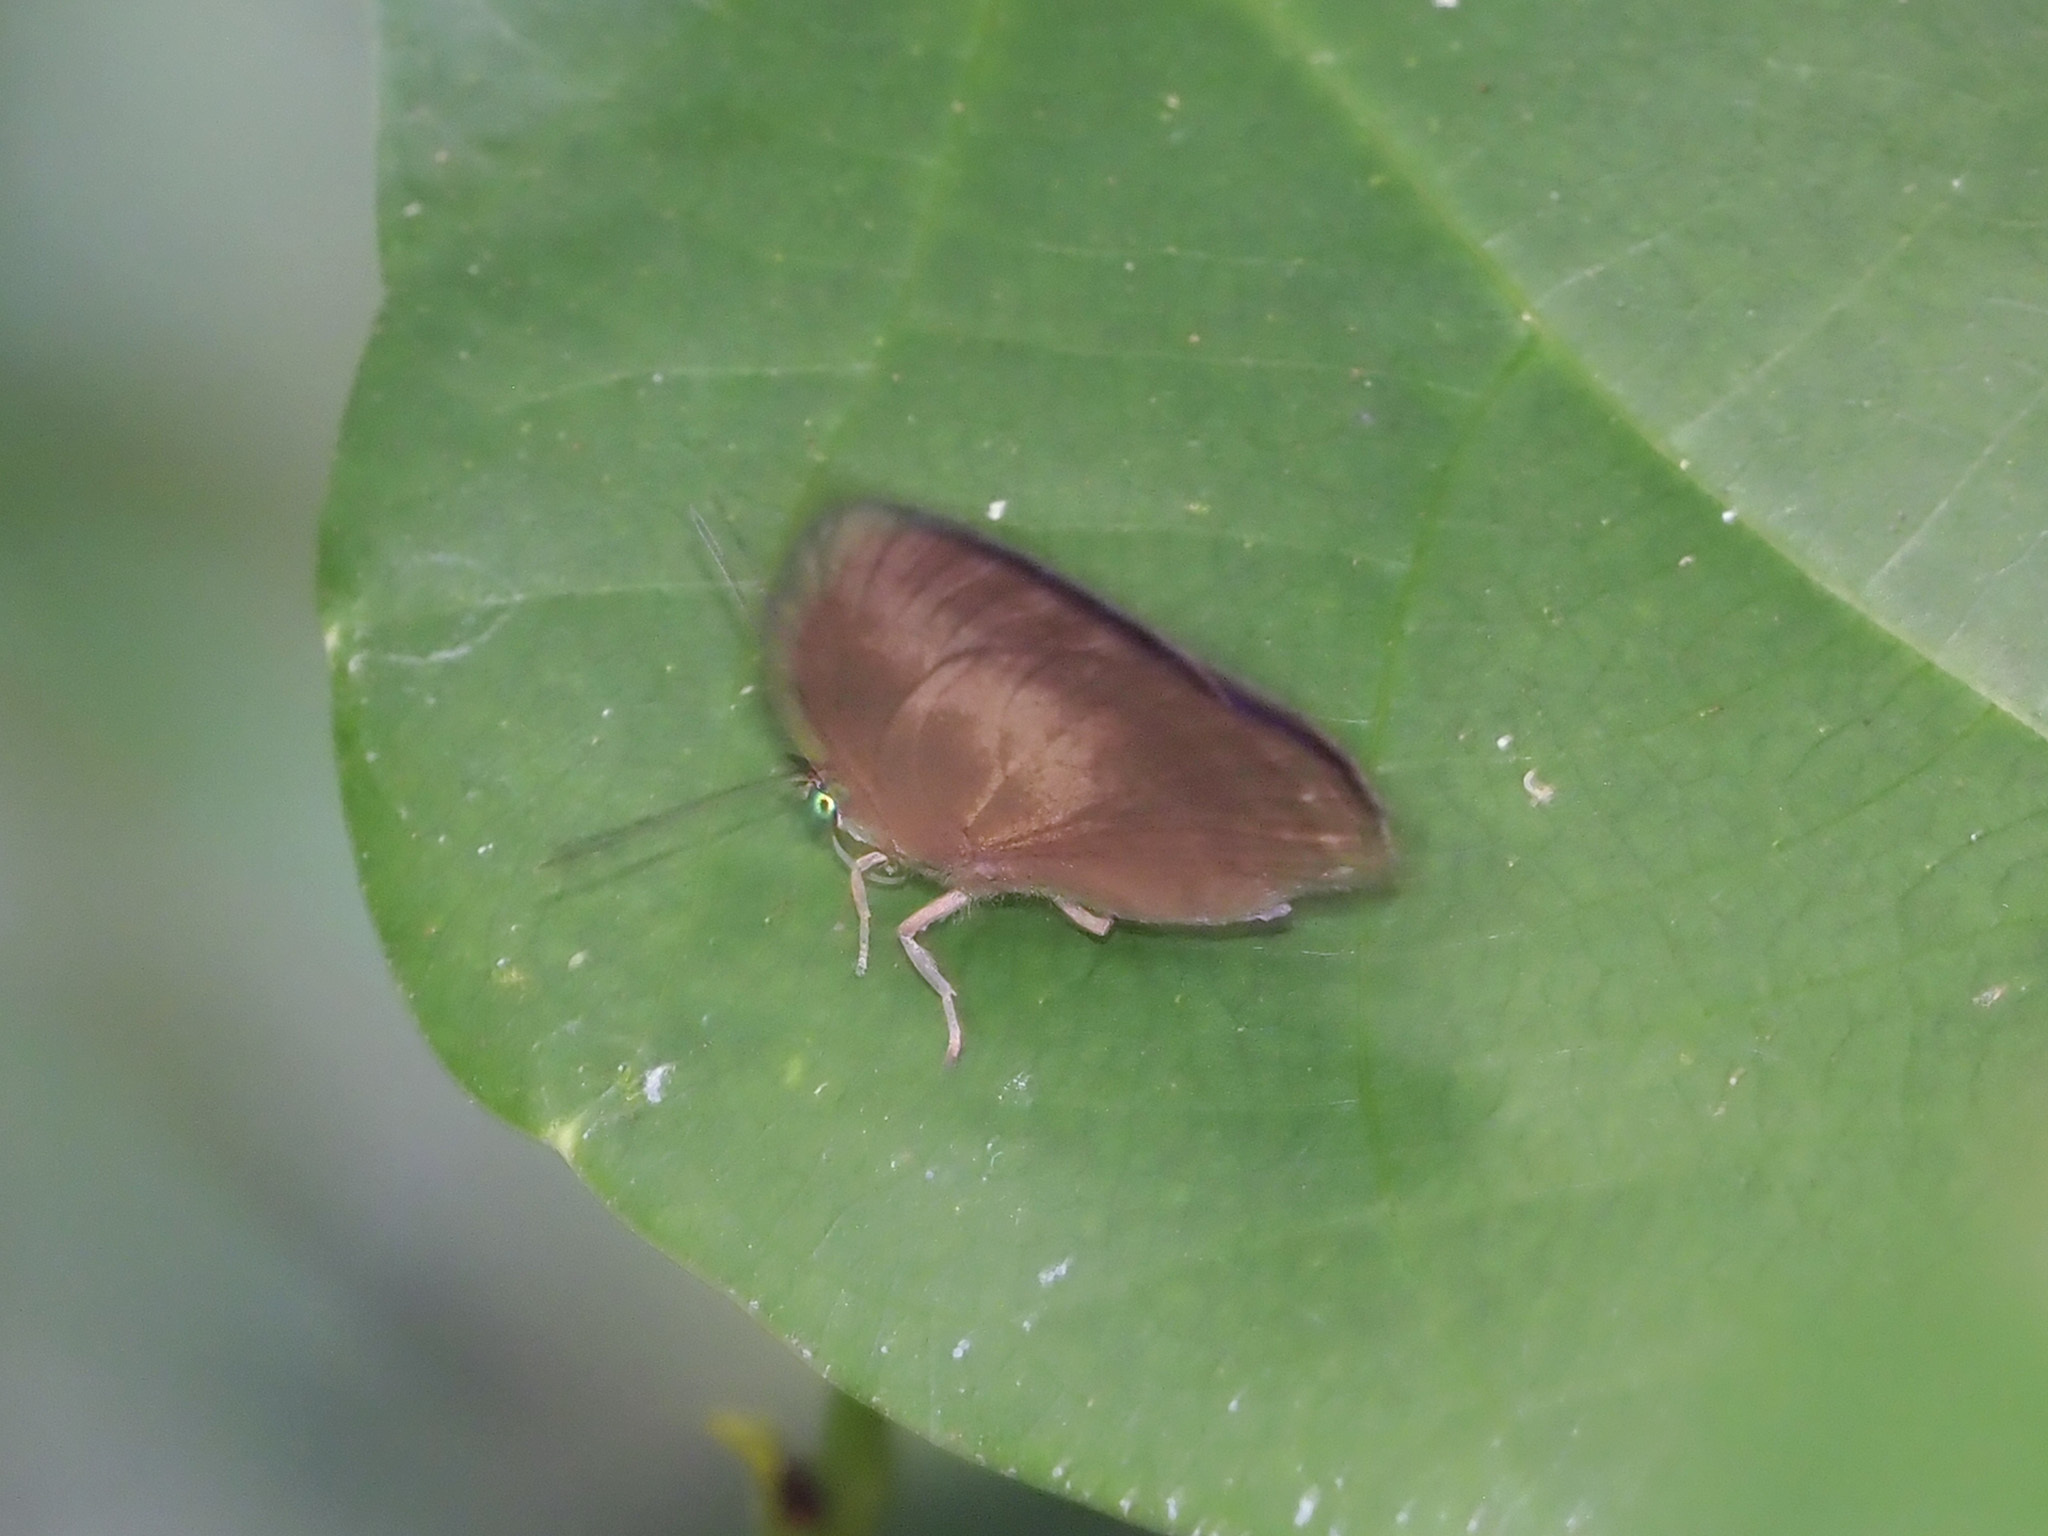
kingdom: Animalia
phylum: Arthropoda
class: Insecta
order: Lepidoptera
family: Lycaenidae
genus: Arhopala
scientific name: Arhopala fulla
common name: Spotless oakblue
